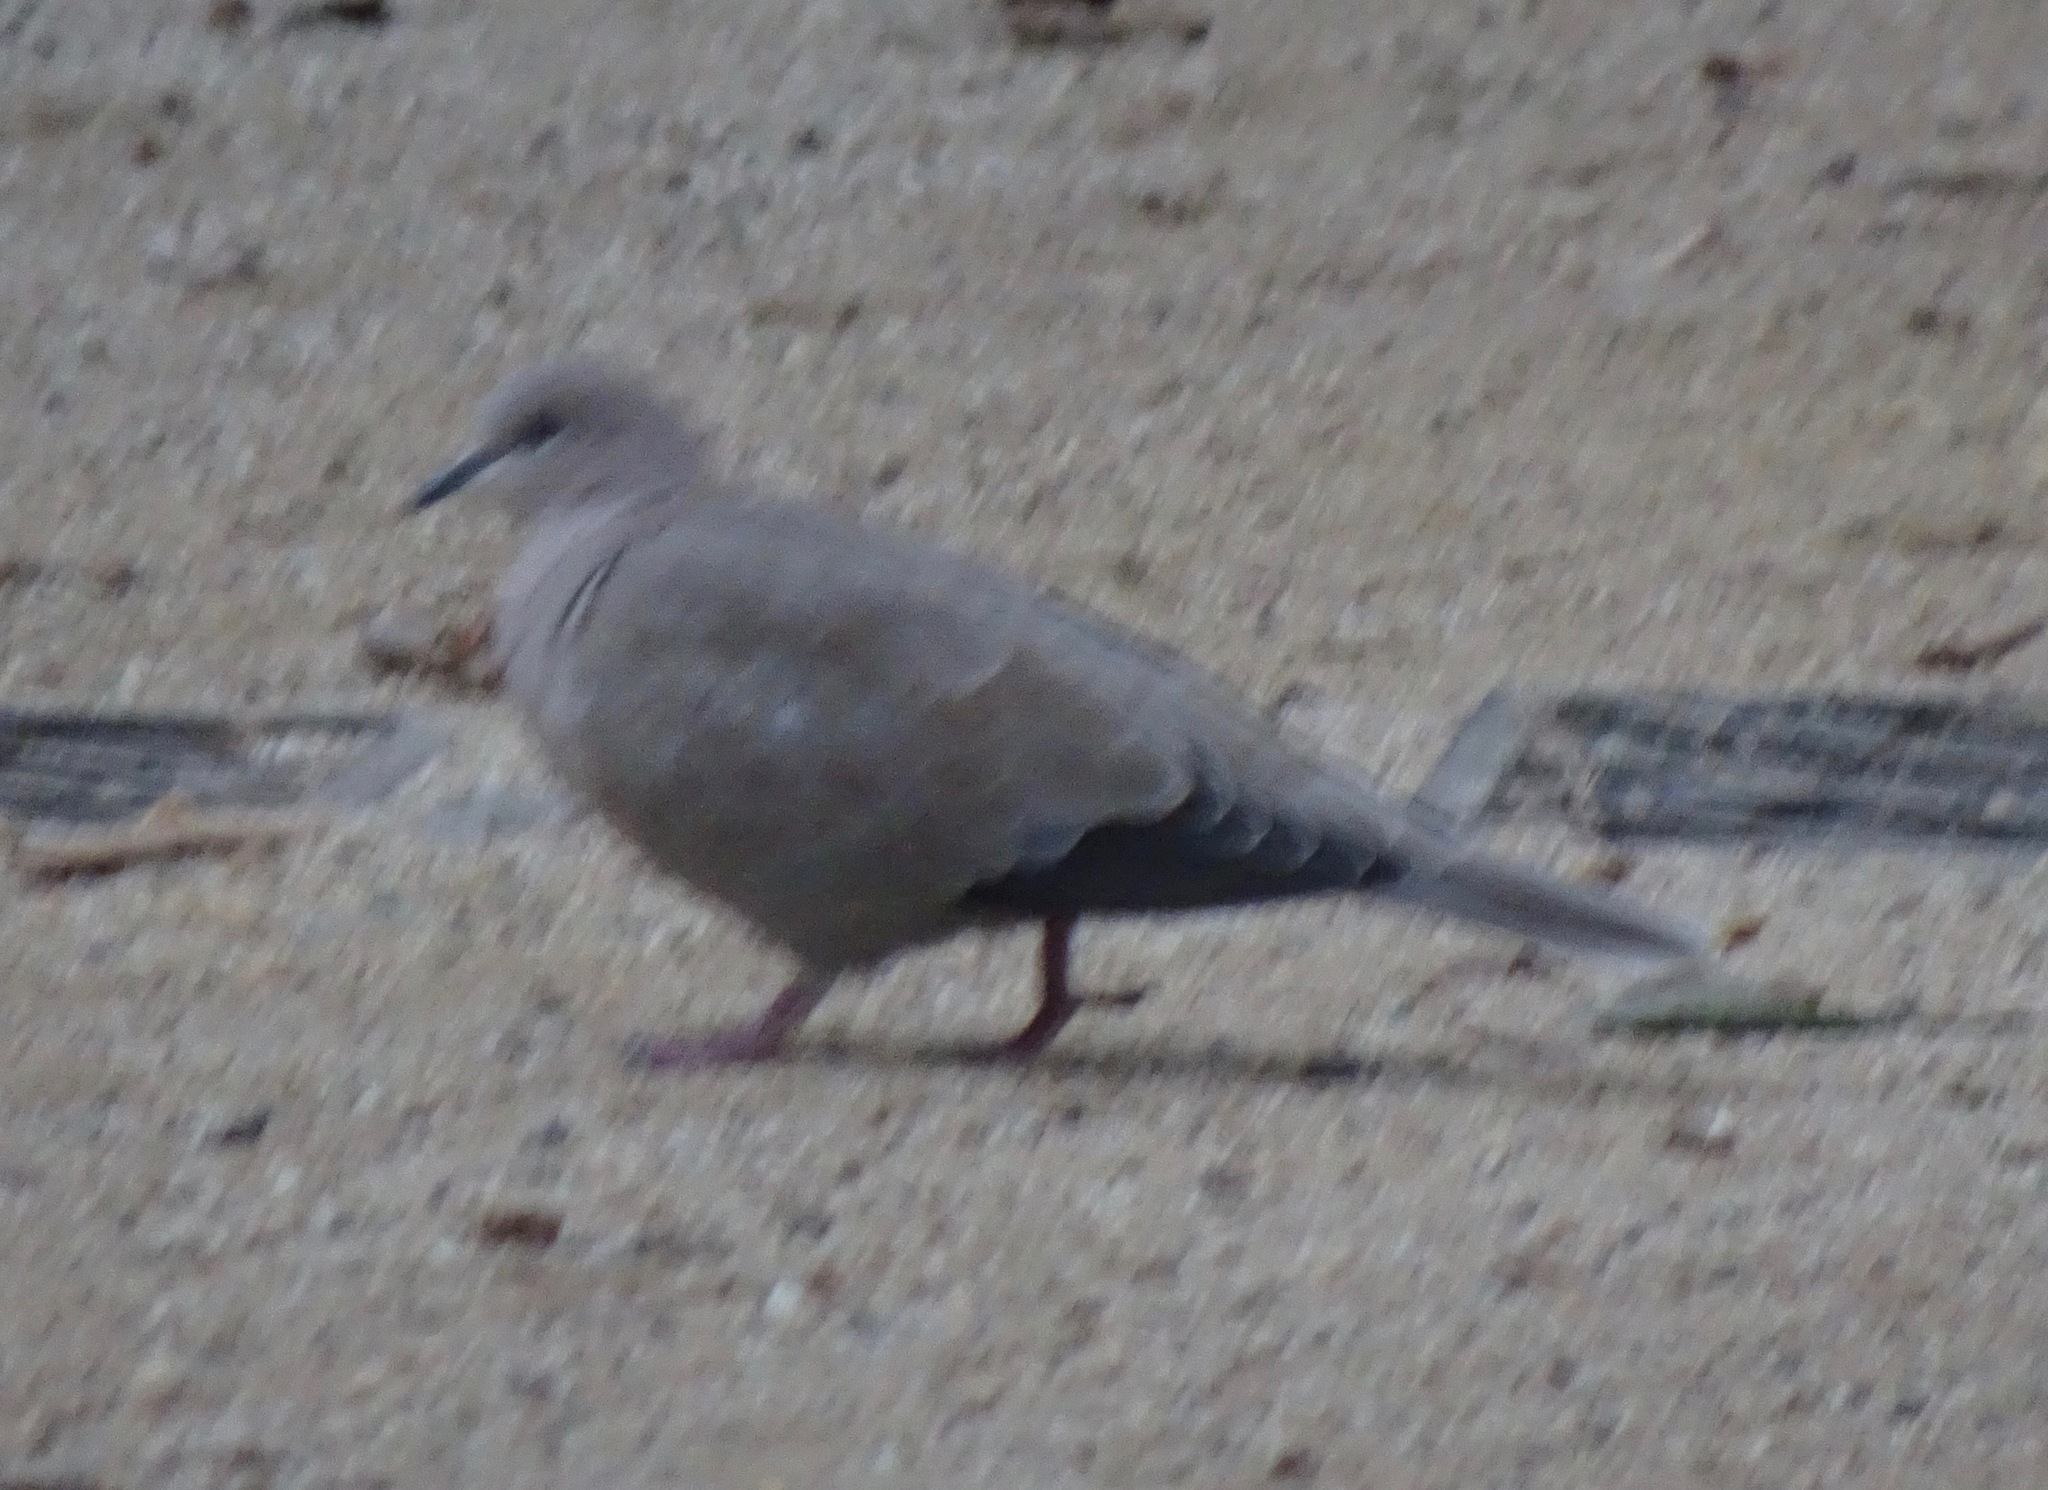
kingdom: Animalia
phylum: Chordata
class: Aves
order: Columbiformes
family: Columbidae
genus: Streptopelia
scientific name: Streptopelia decaocto
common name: Eurasian collared dove
